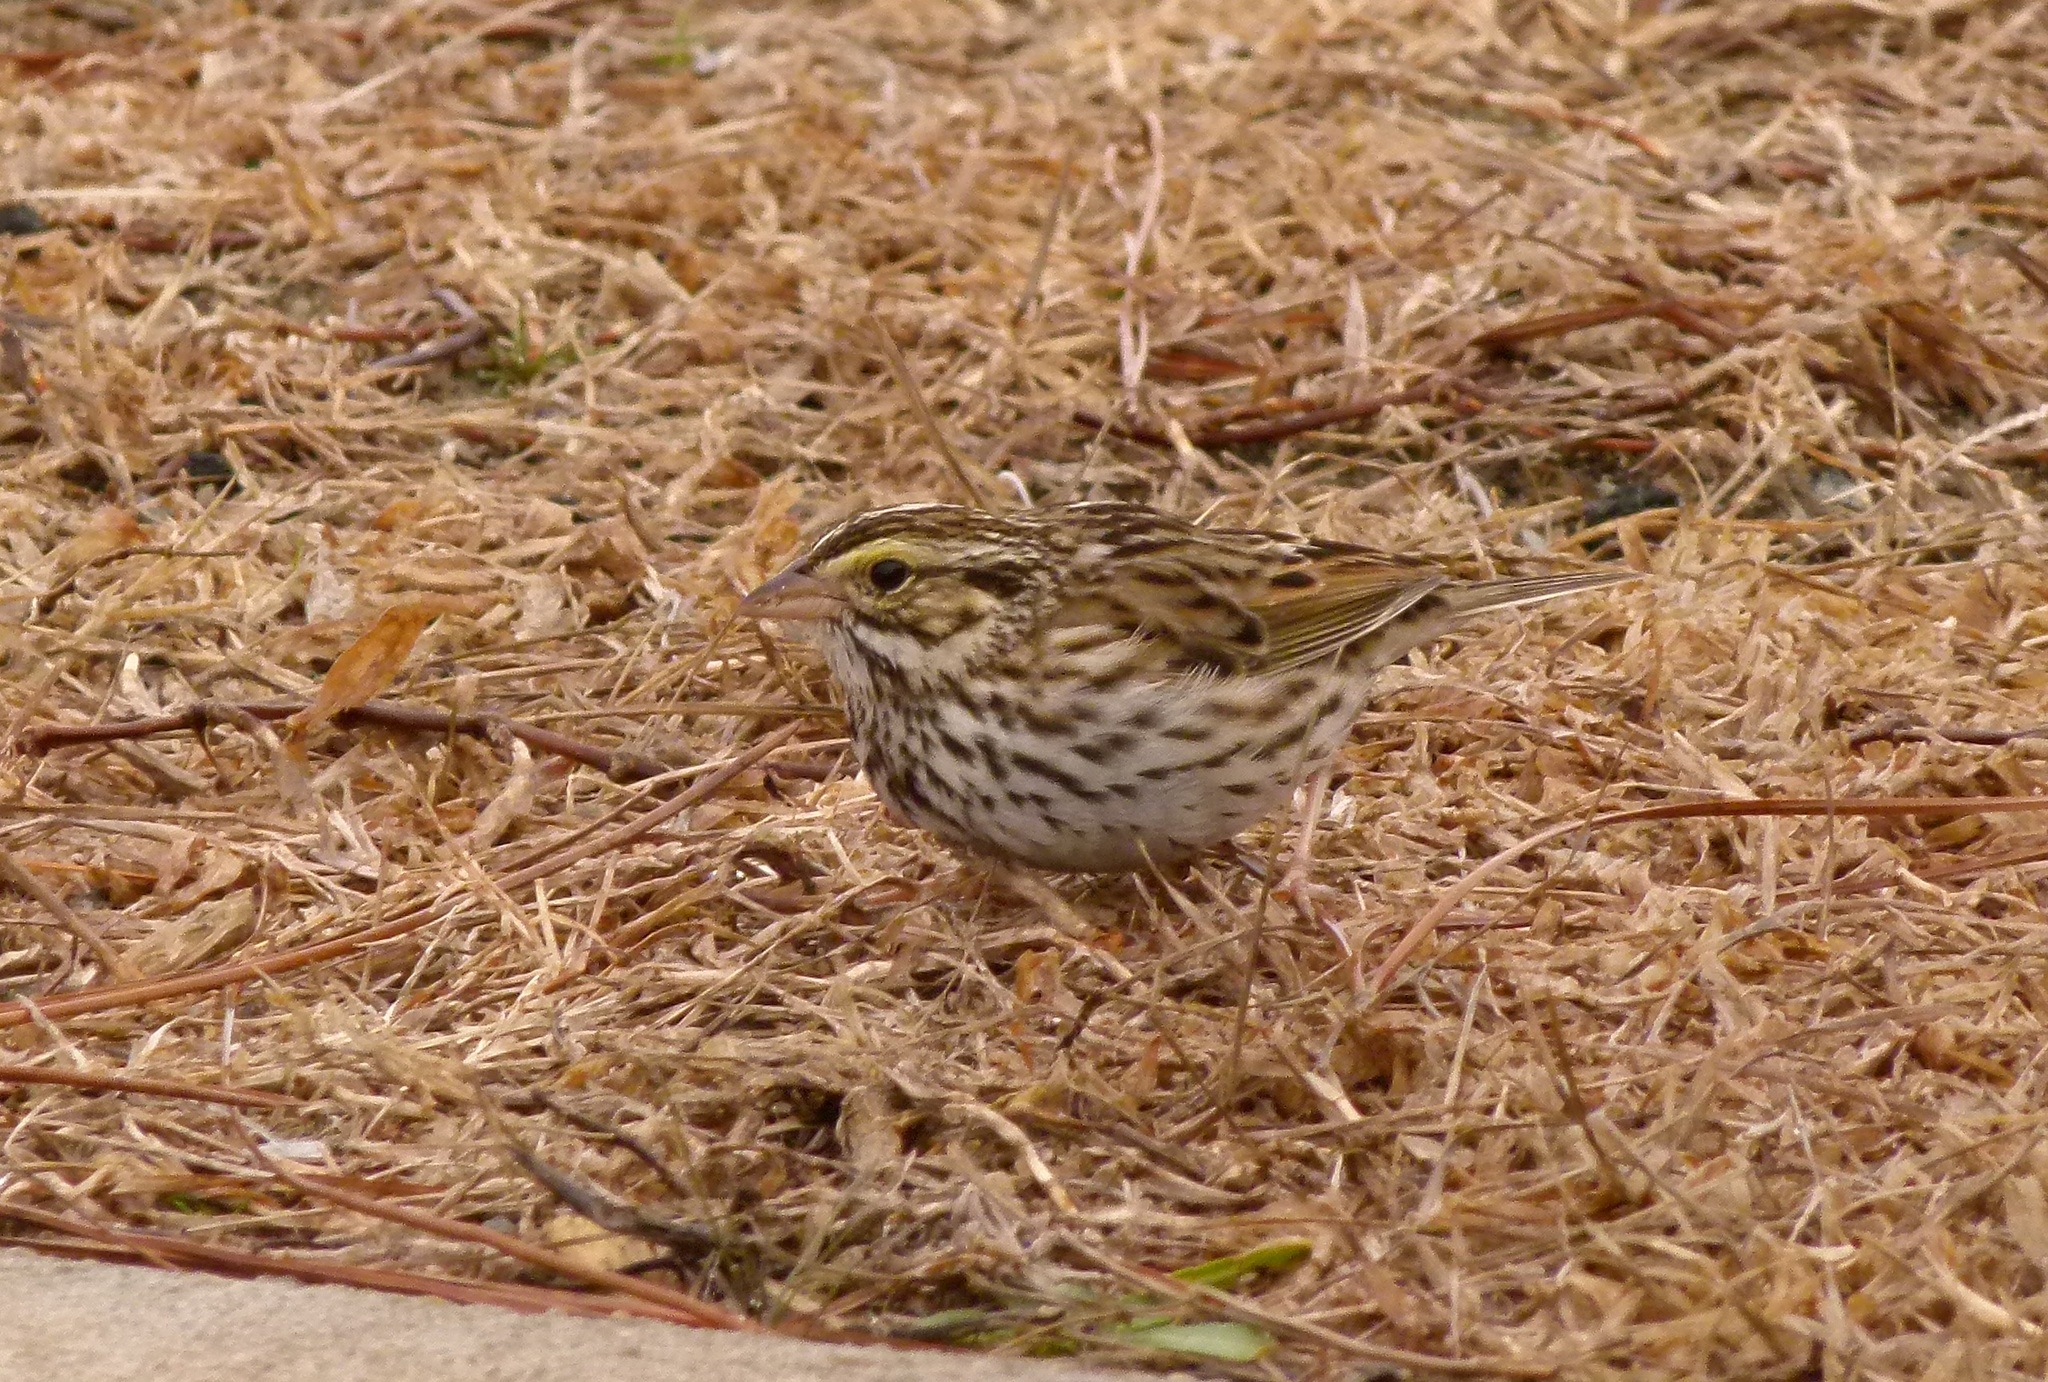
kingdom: Animalia
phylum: Chordata
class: Aves
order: Passeriformes
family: Passerellidae
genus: Passerculus
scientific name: Passerculus sandwichensis
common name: Savannah sparrow
